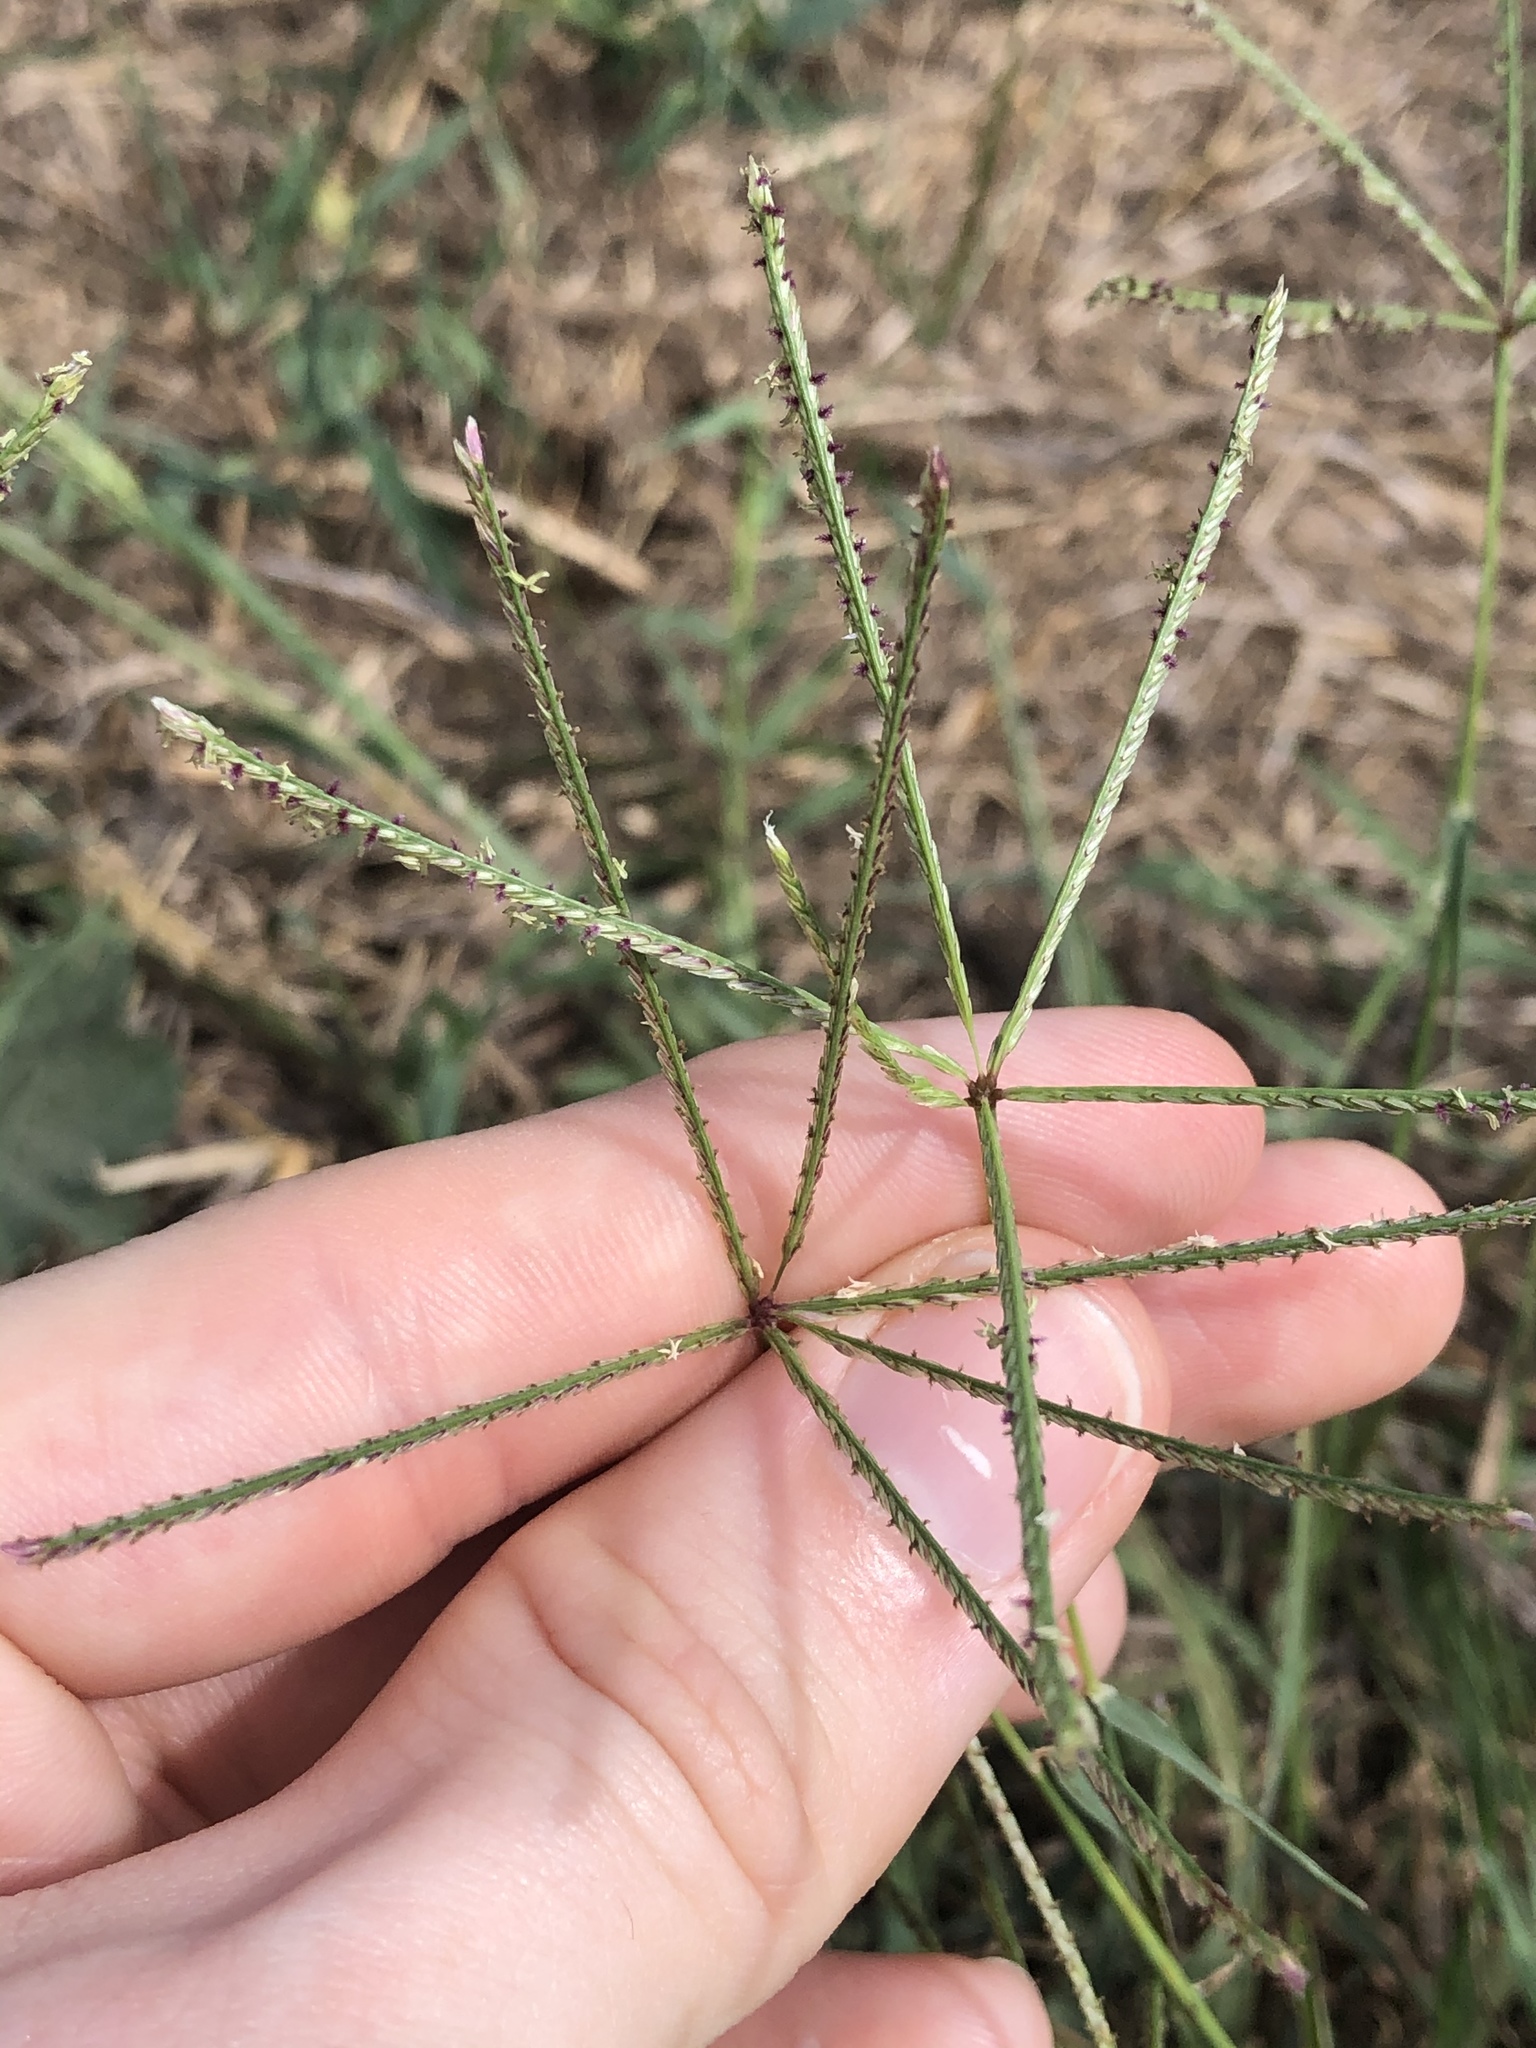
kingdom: Plantae
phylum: Tracheophyta
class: Liliopsida
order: Poales
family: Poaceae
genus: Cynodon
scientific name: Cynodon dactylon
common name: Bermuda grass
